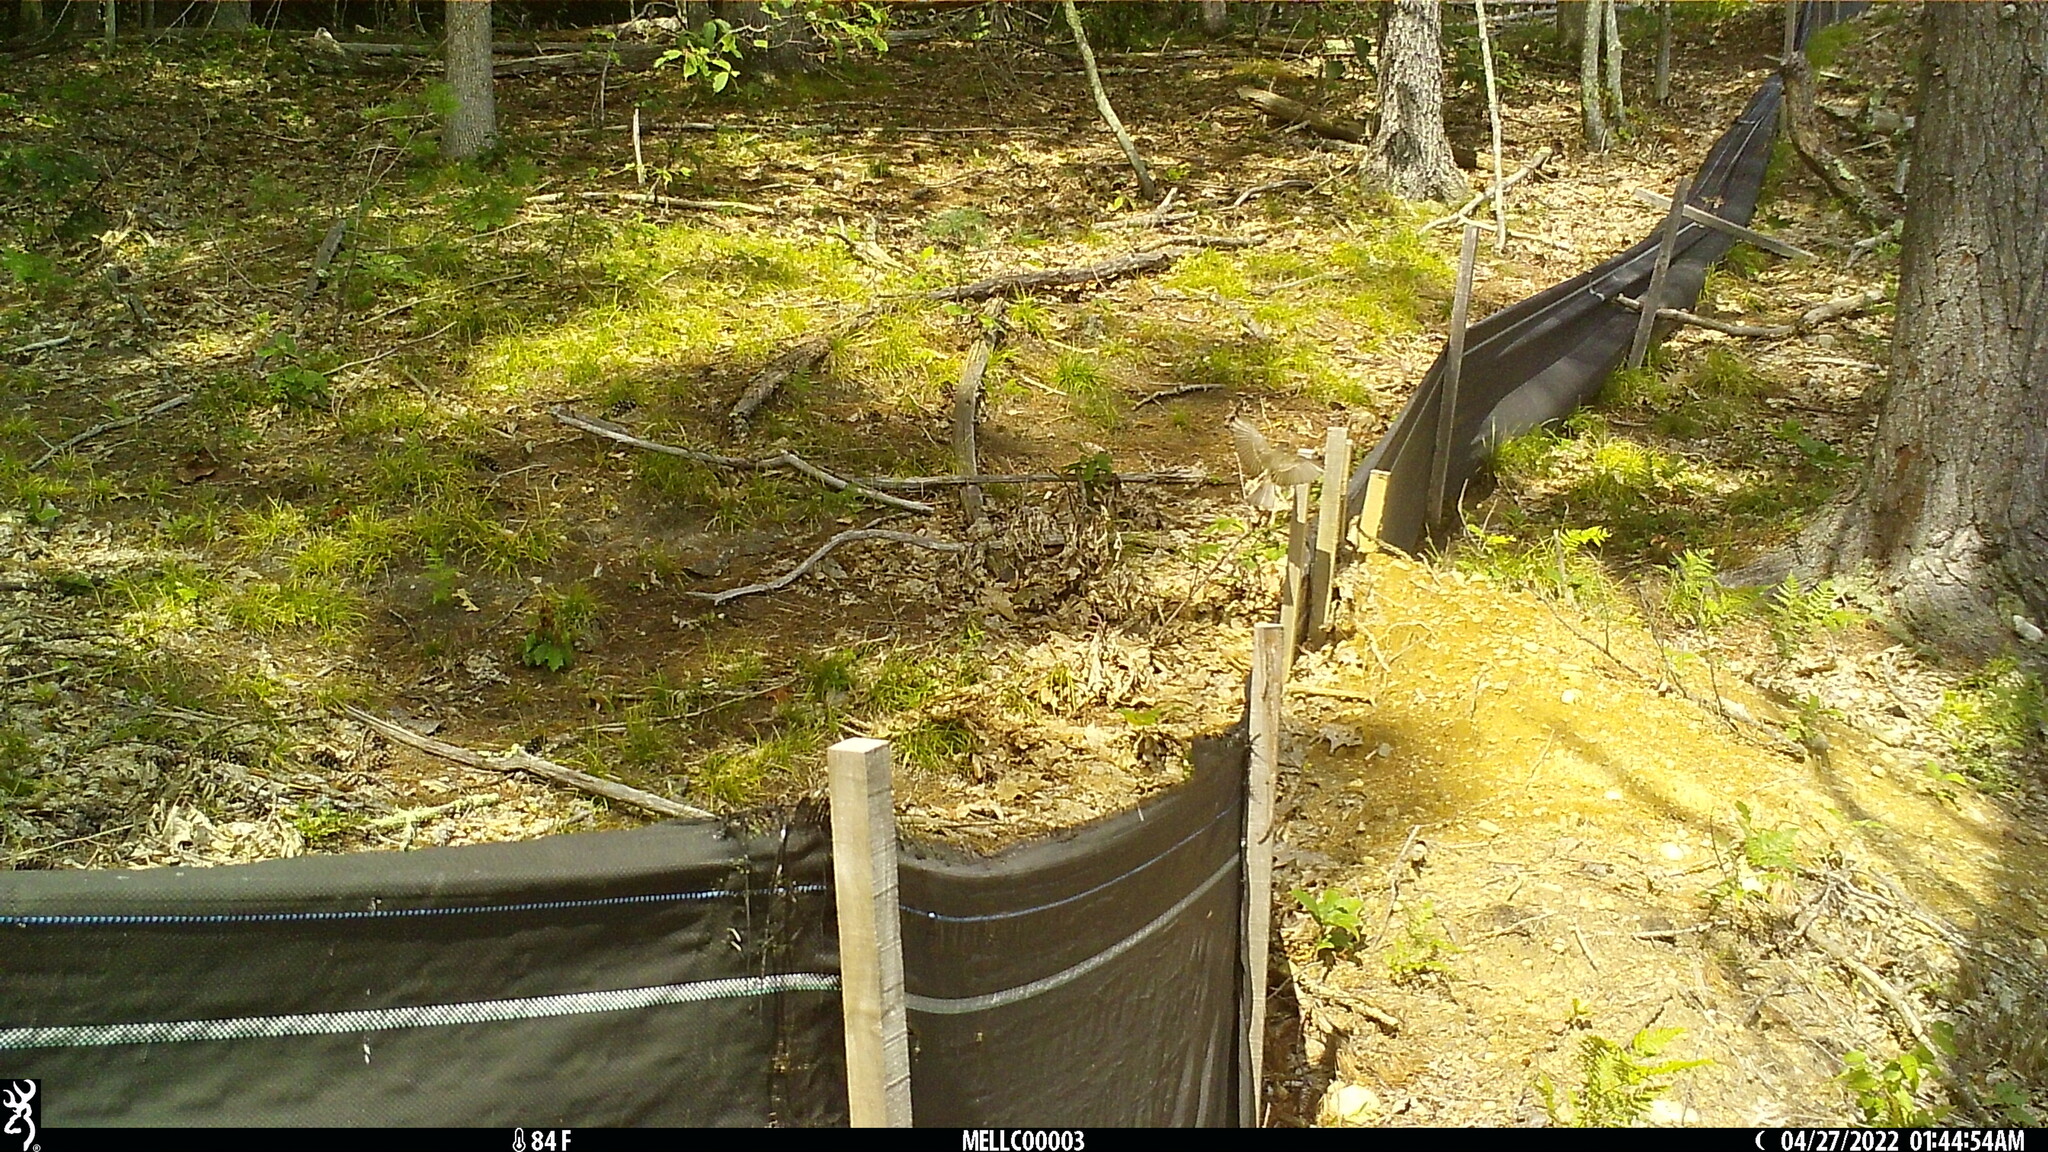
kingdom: Animalia
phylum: Chordata
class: Aves
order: Passeriformes
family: Tyrannidae
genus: Sayornis
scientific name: Sayornis phoebe
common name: Eastern phoebe
